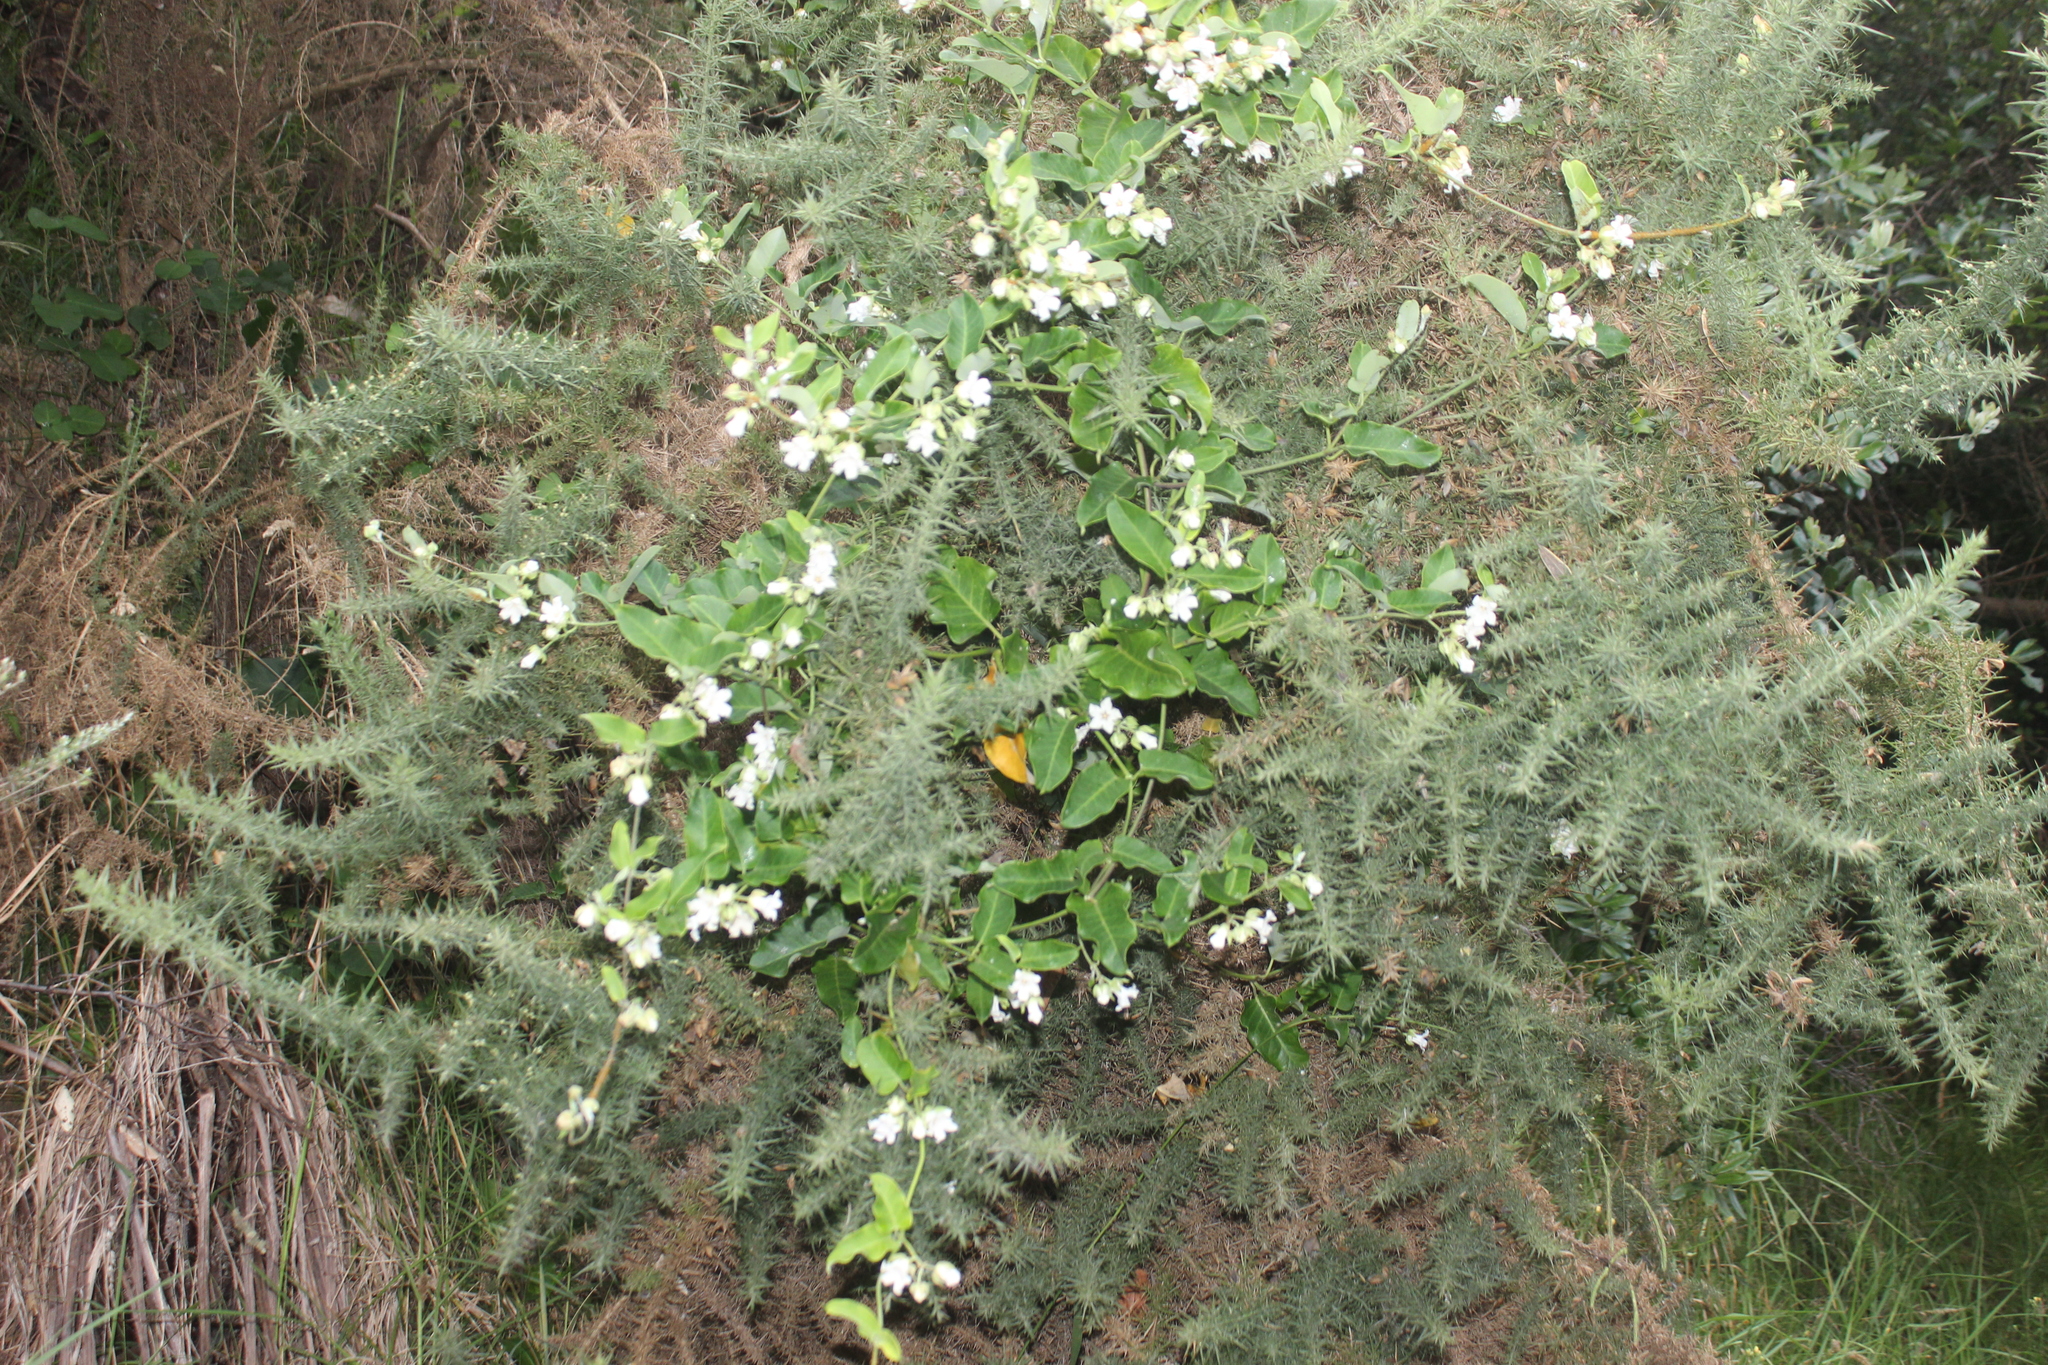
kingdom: Plantae
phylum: Tracheophyta
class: Magnoliopsida
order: Gentianales
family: Apocynaceae
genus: Araujia
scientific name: Araujia sericifera
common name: White bladderflower
